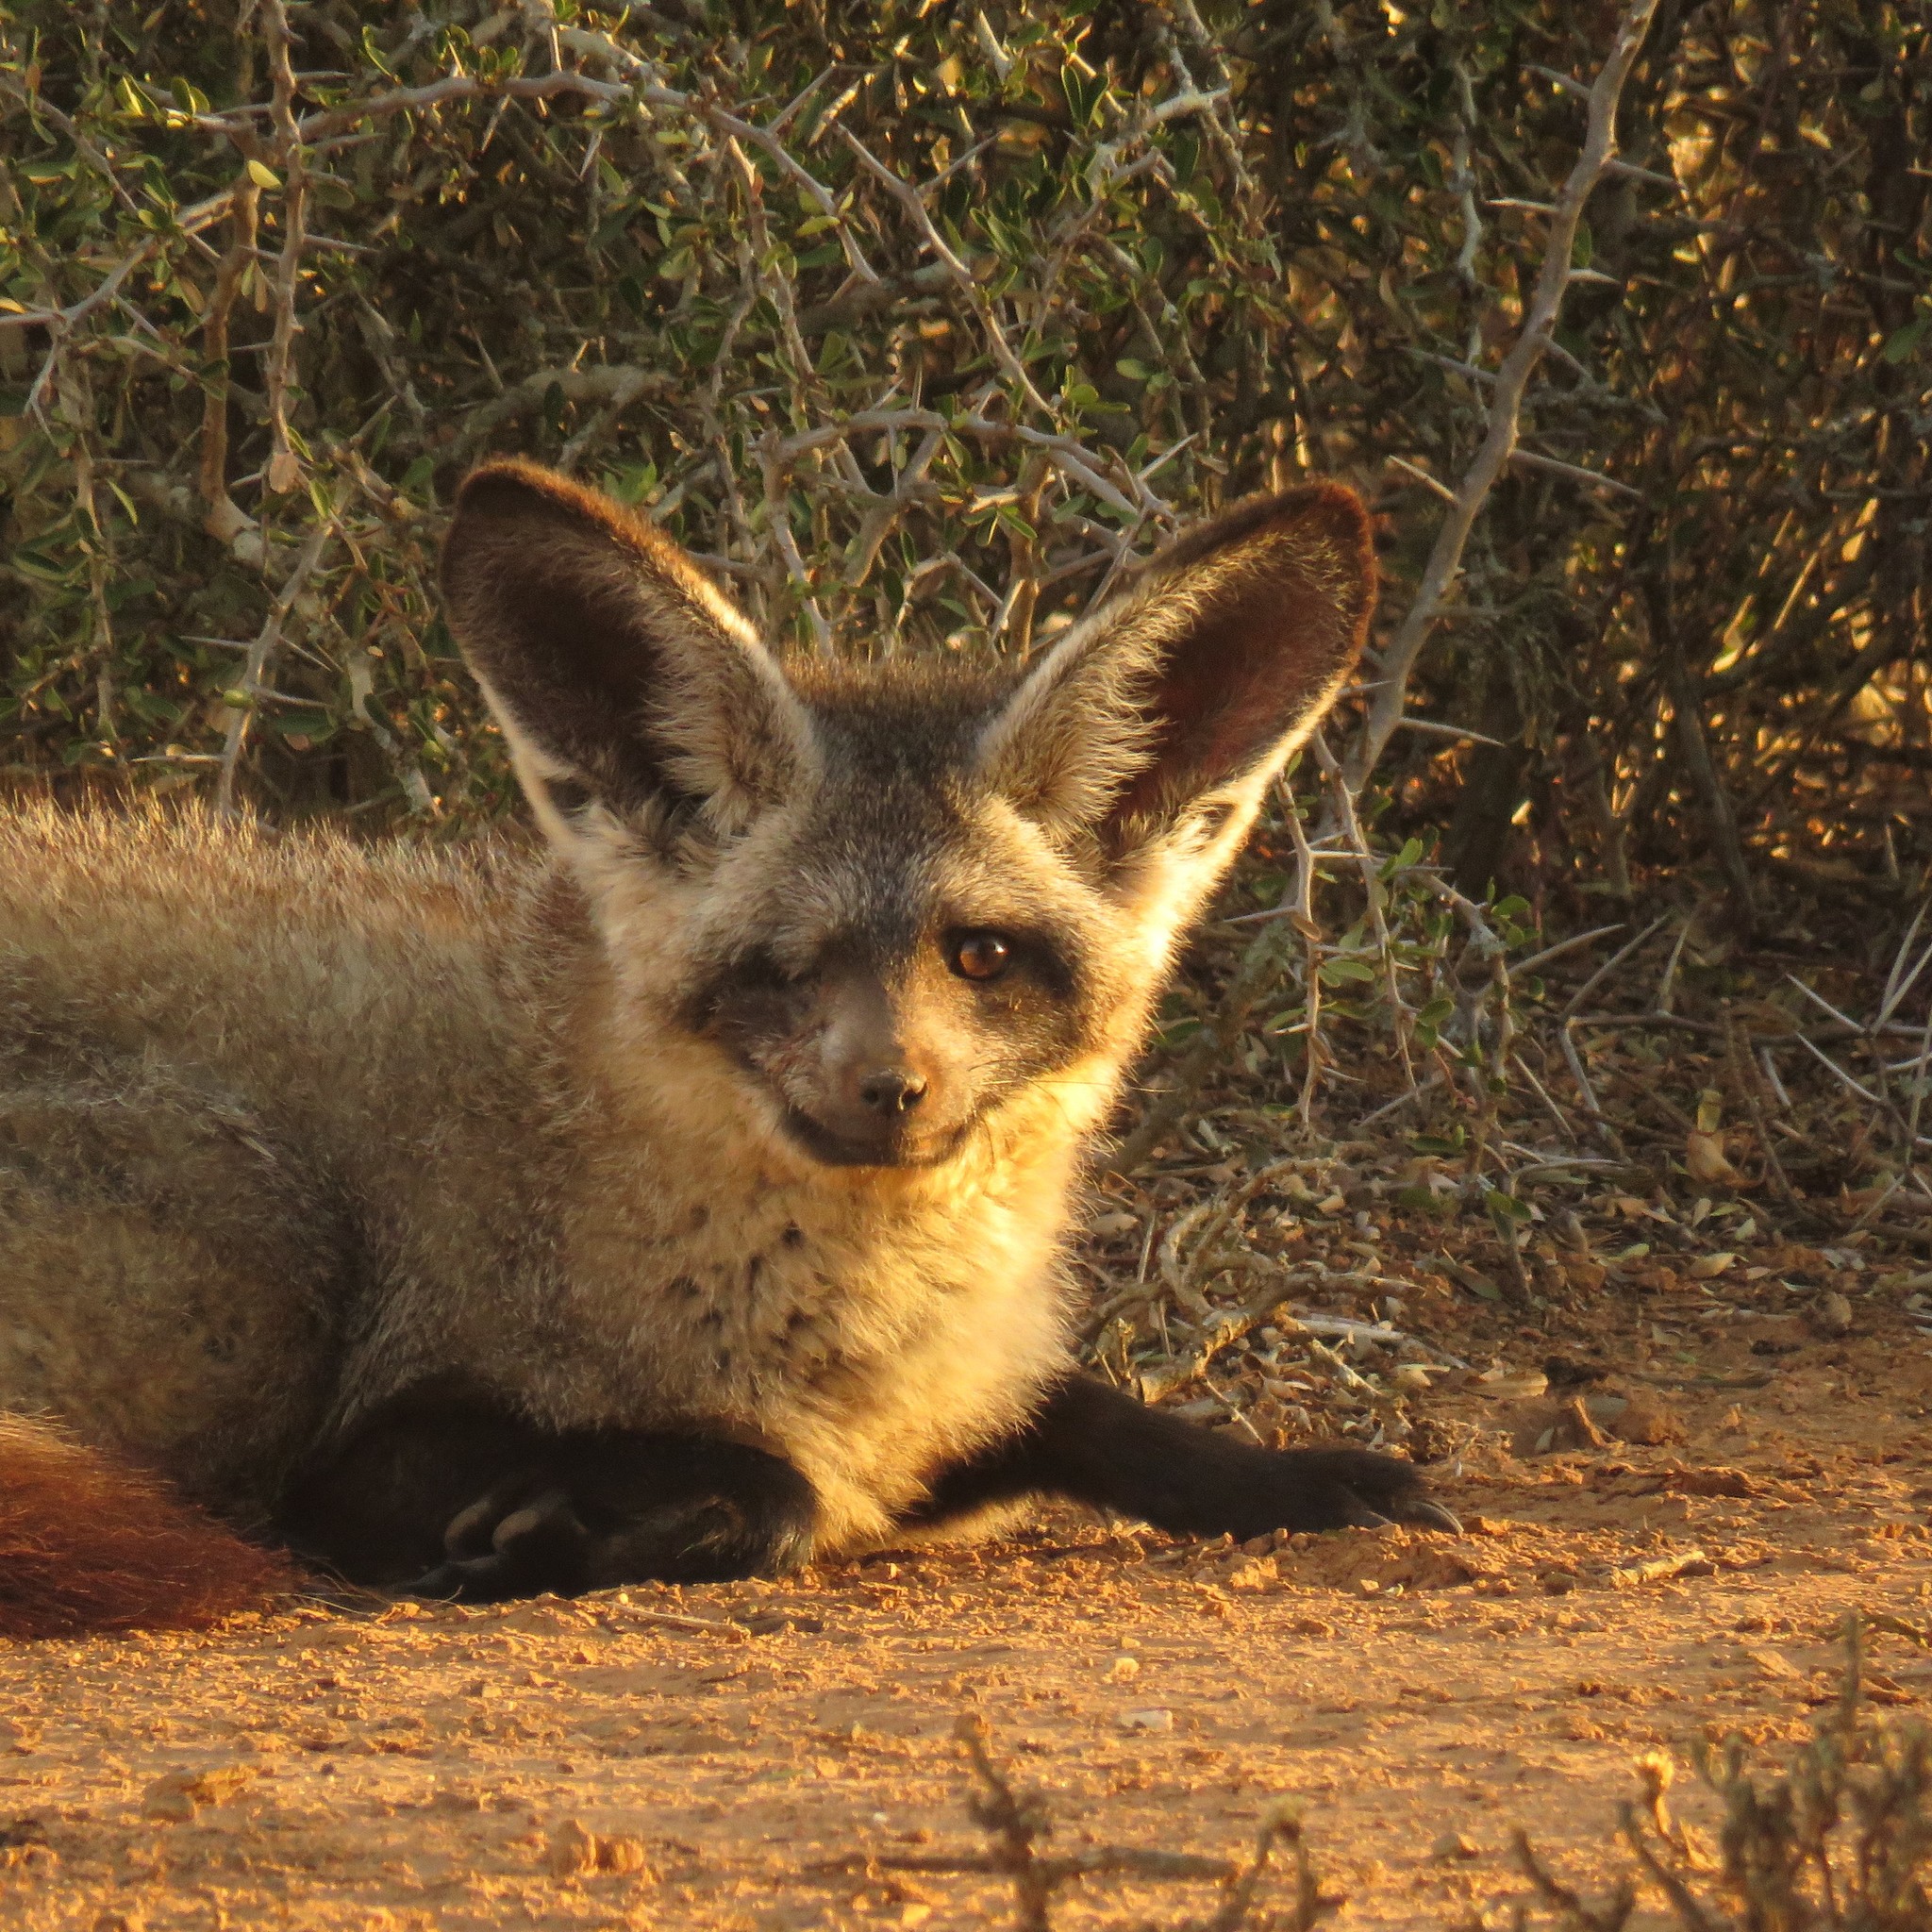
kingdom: Animalia
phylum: Chordata
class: Mammalia
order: Carnivora
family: Canidae
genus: Otocyon
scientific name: Otocyon megalotis
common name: Bat-eared fox
